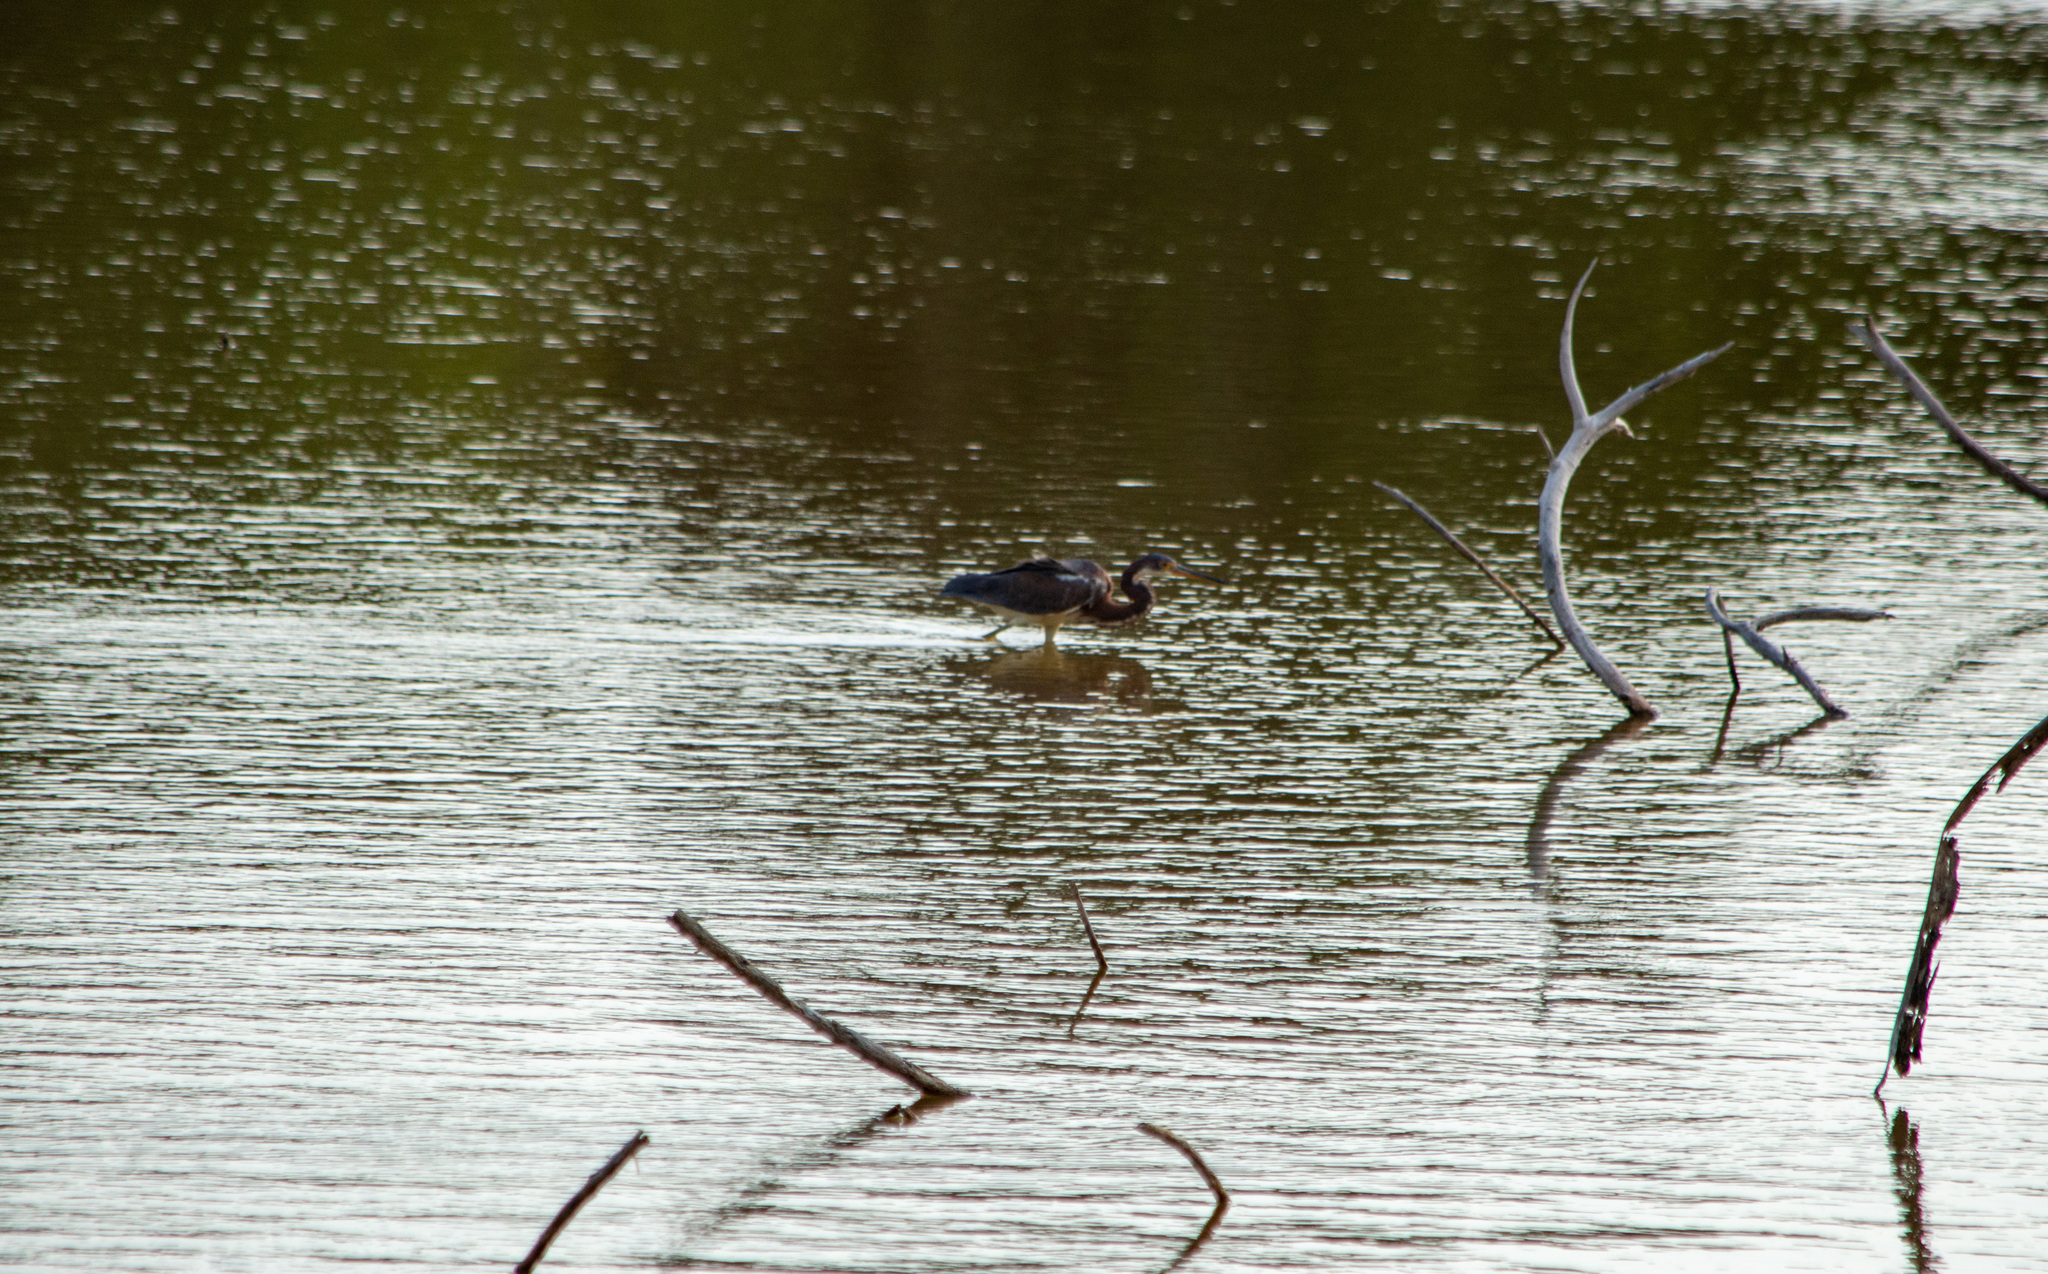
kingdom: Animalia
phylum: Chordata
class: Aves
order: Pelecaniformes
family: Ardeidae
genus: Egretta
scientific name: Egretta tricolor
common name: Tricolored heron
